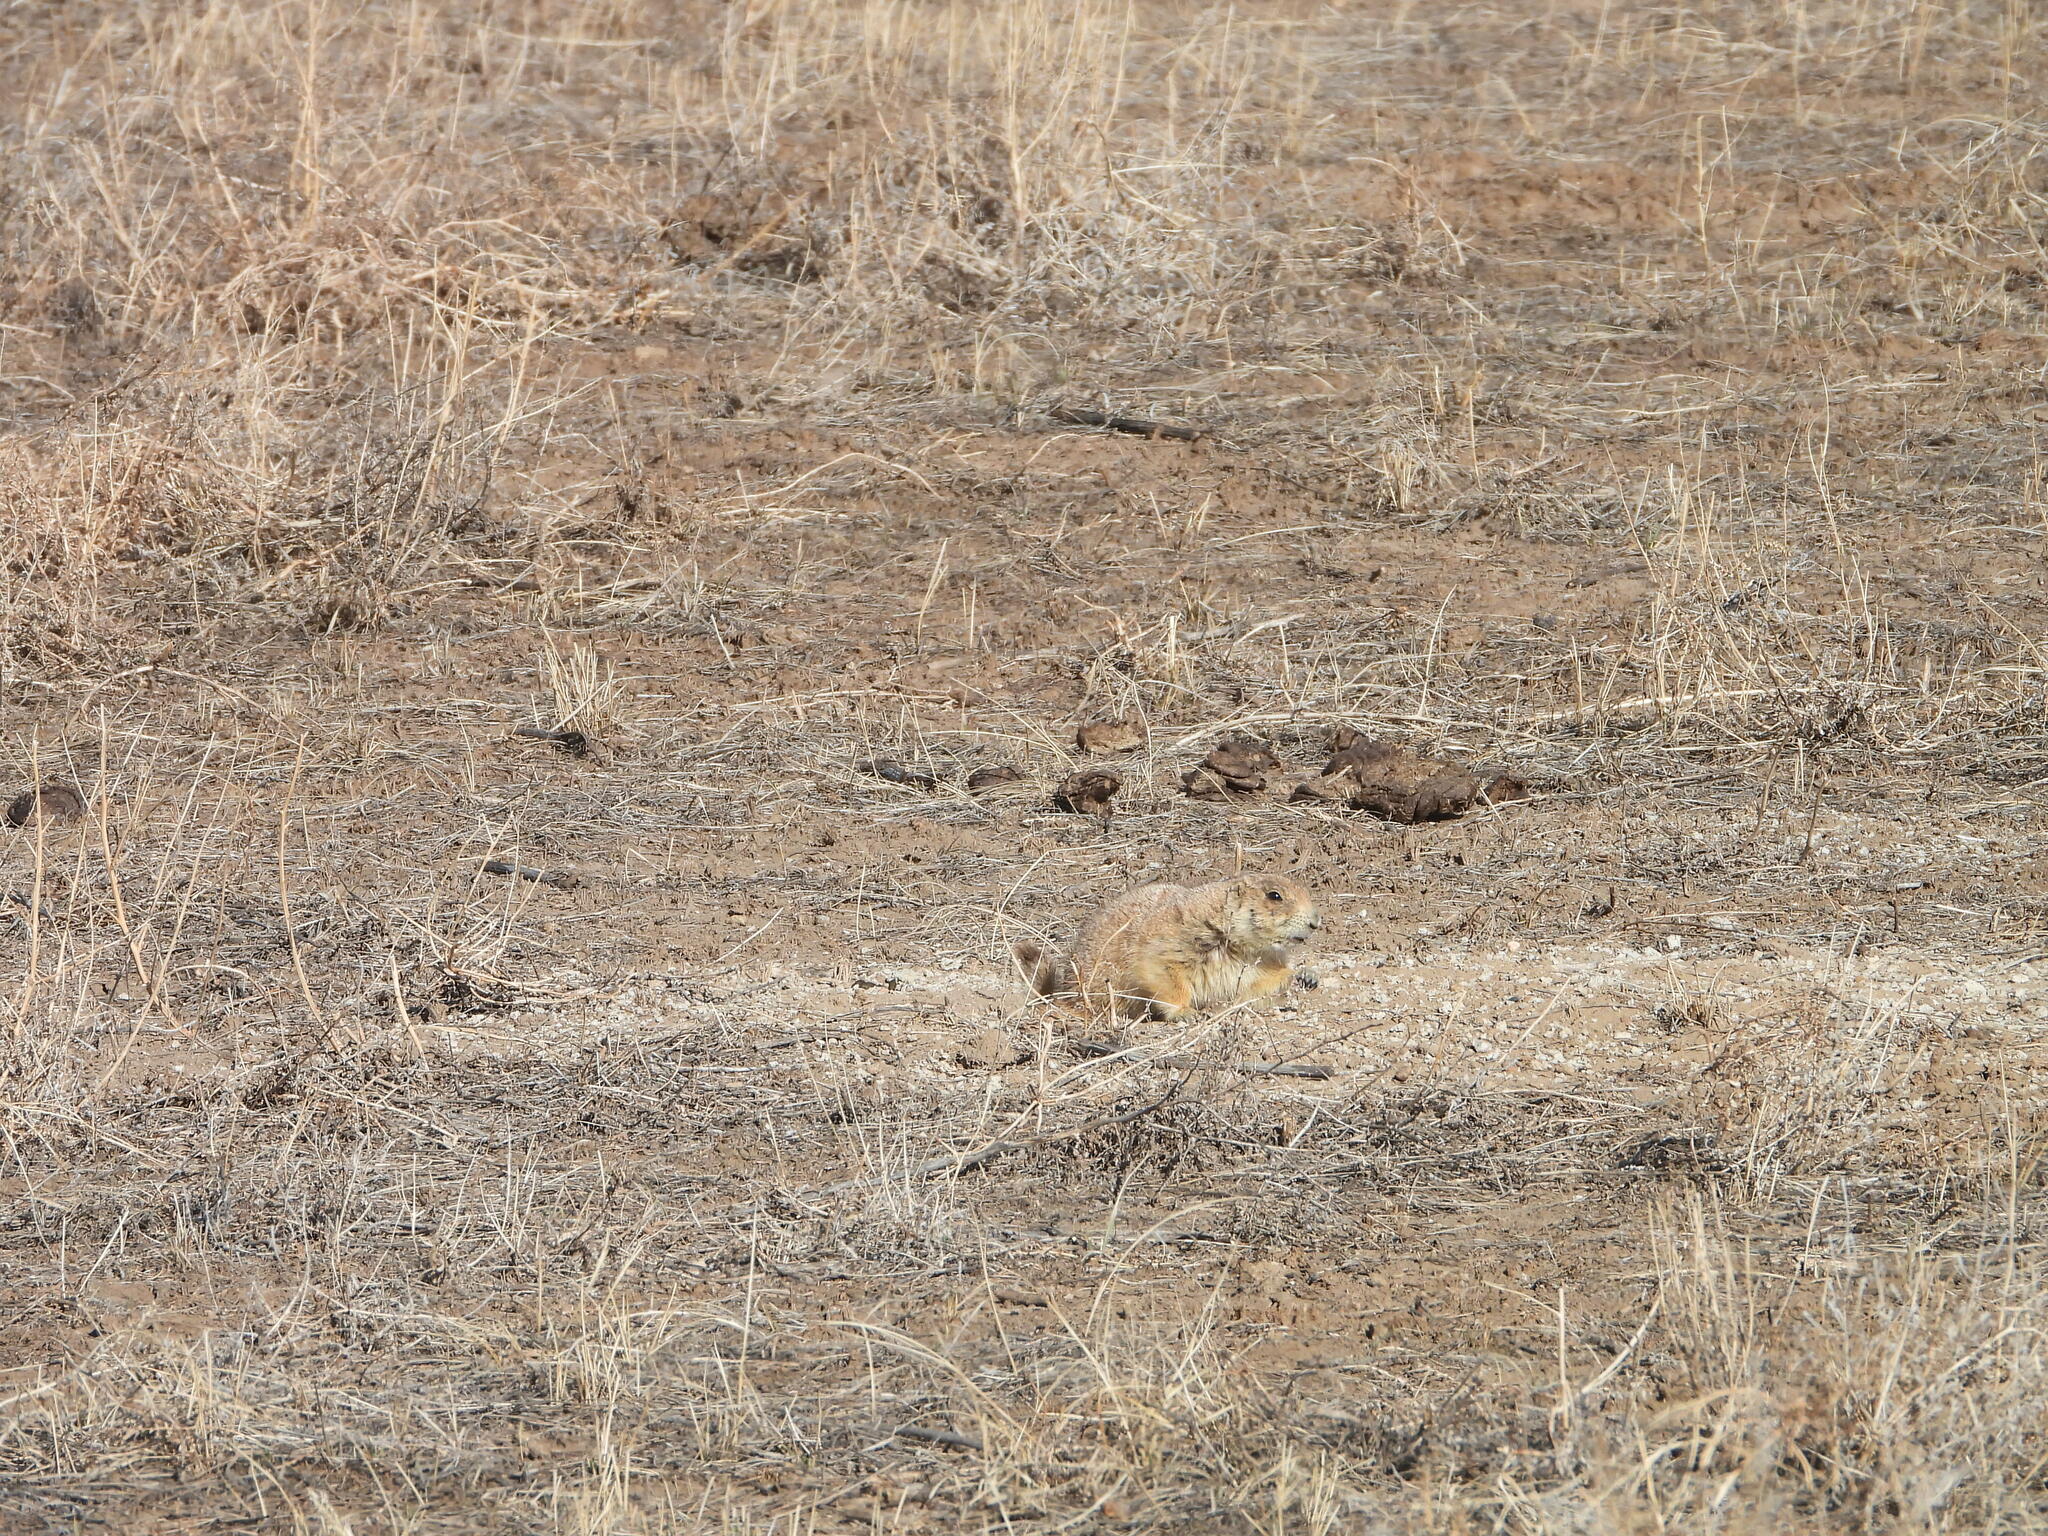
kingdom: Animalia
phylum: Chordata
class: Mammalia
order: Rodentia
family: Sciuridae
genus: Cynomys
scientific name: Cynomys ludovicianus
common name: Black-tailed prairie dog
